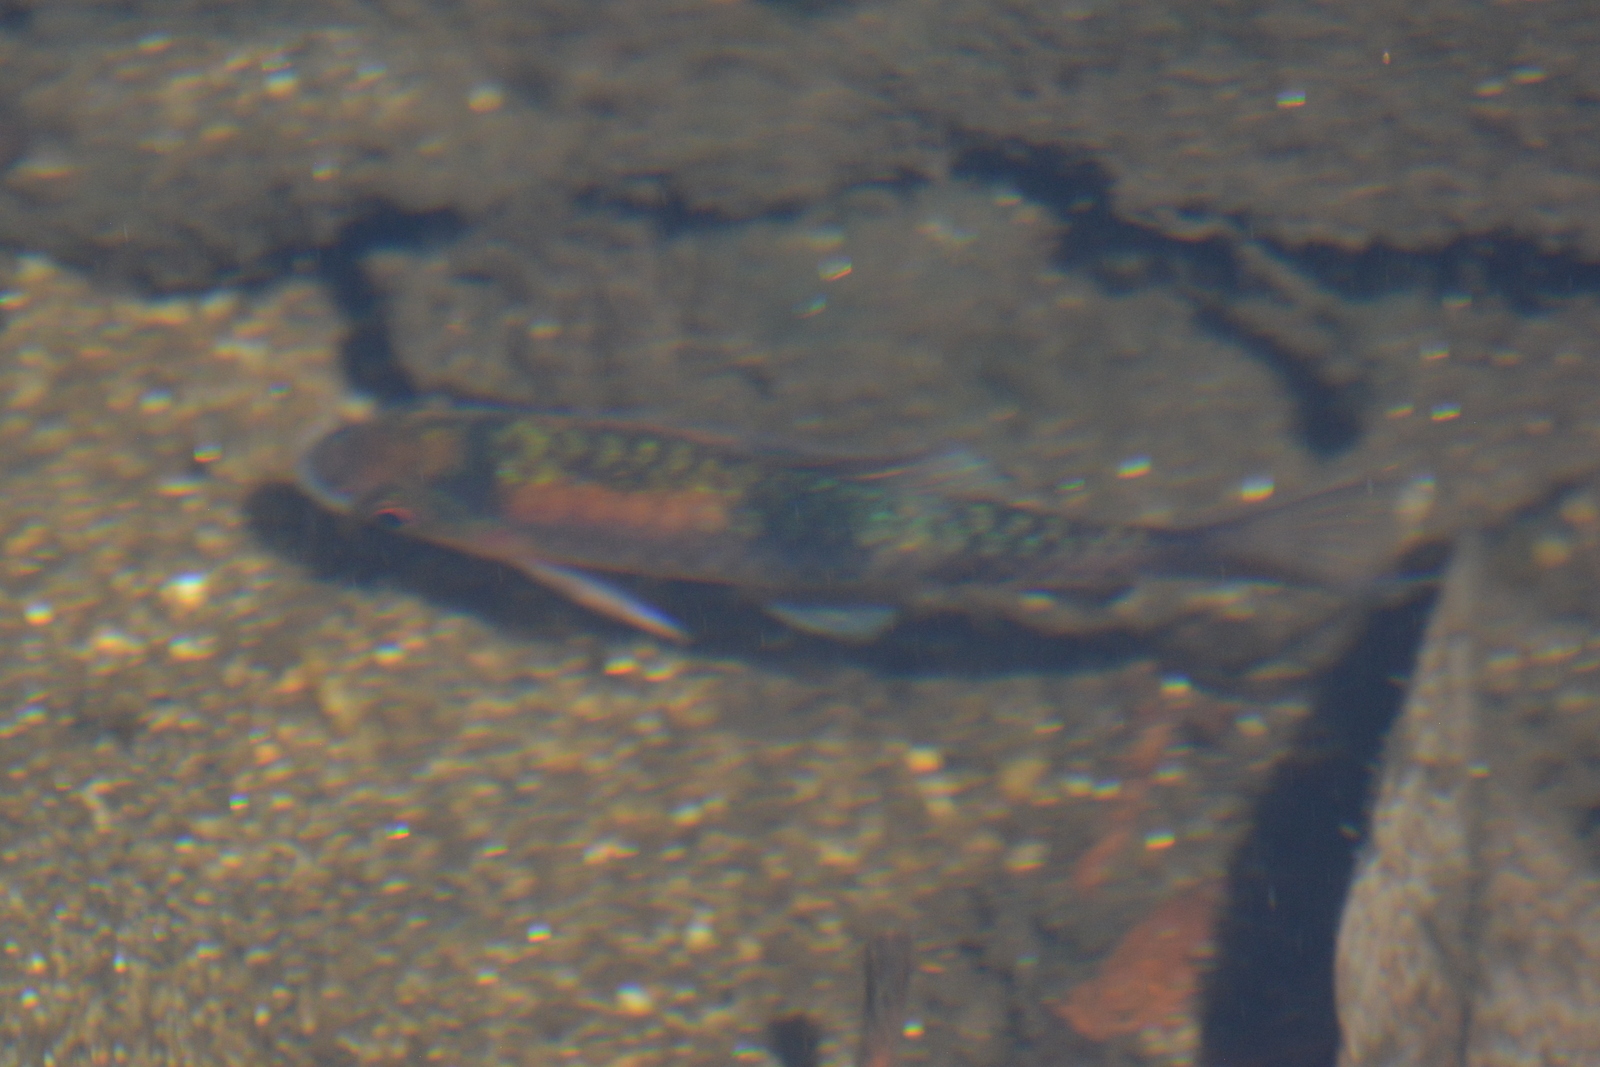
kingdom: Animalia
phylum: Chordata
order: Cypriniformes
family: Cyprinidae
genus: Haludaria
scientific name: Haludaria fasciata
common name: Melon barb
